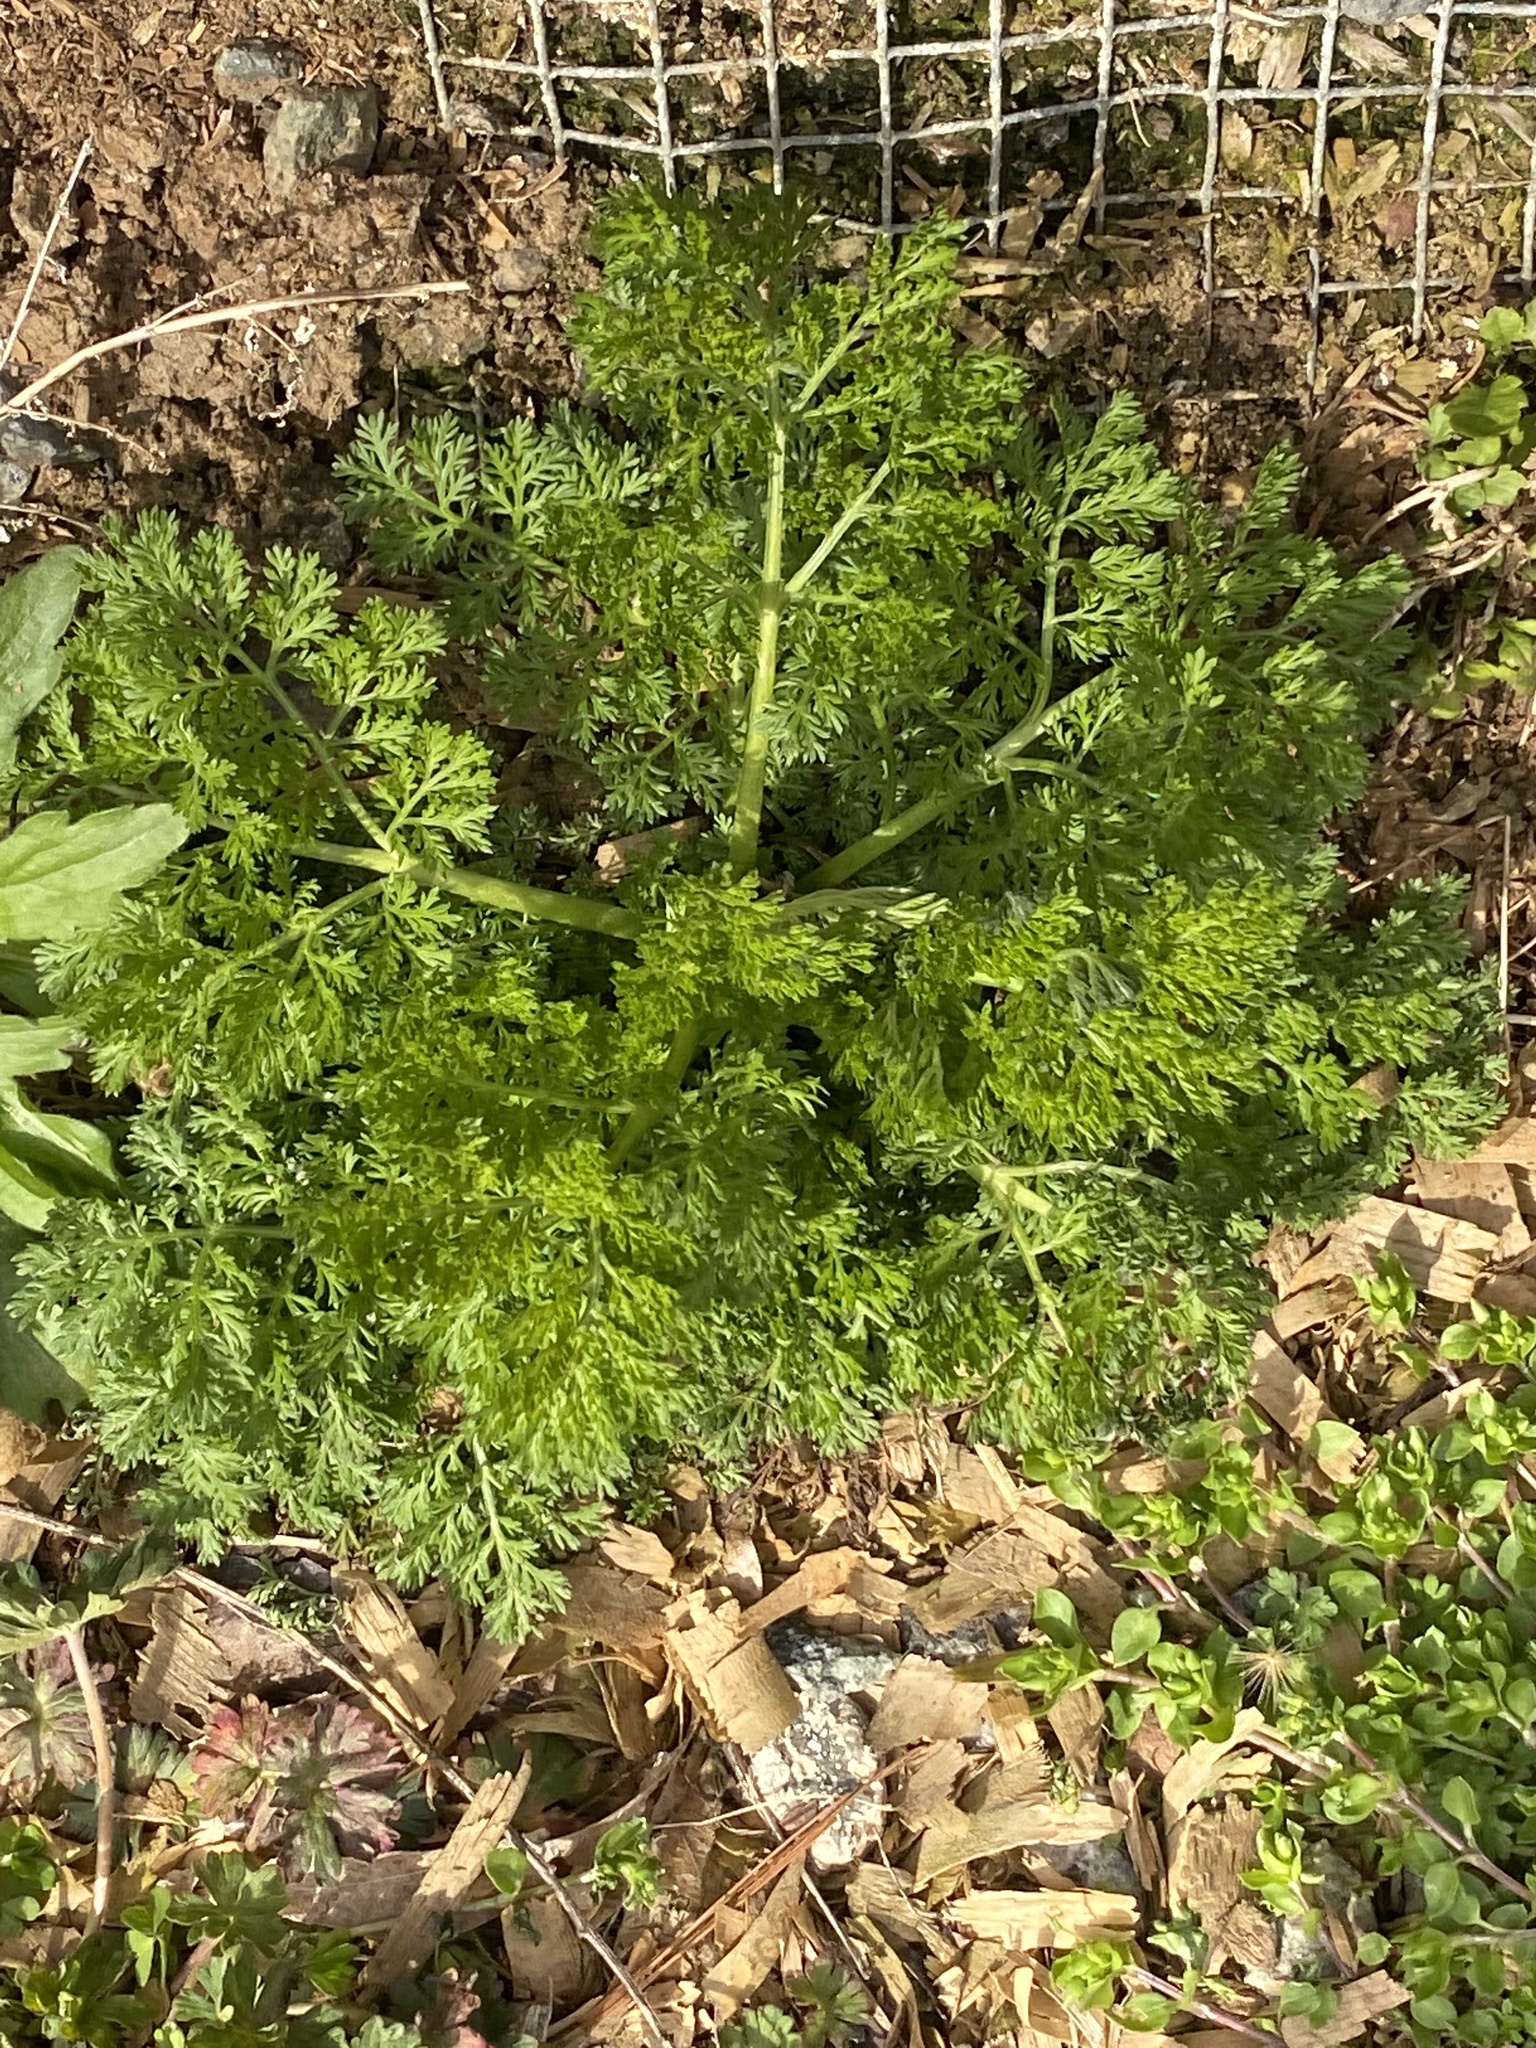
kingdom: Plantae
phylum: Tracheophyta
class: Magnoliopsida
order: Asterales
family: Asteraceae
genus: Artemisia
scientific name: Artemisia annua
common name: Sweet sagewort
